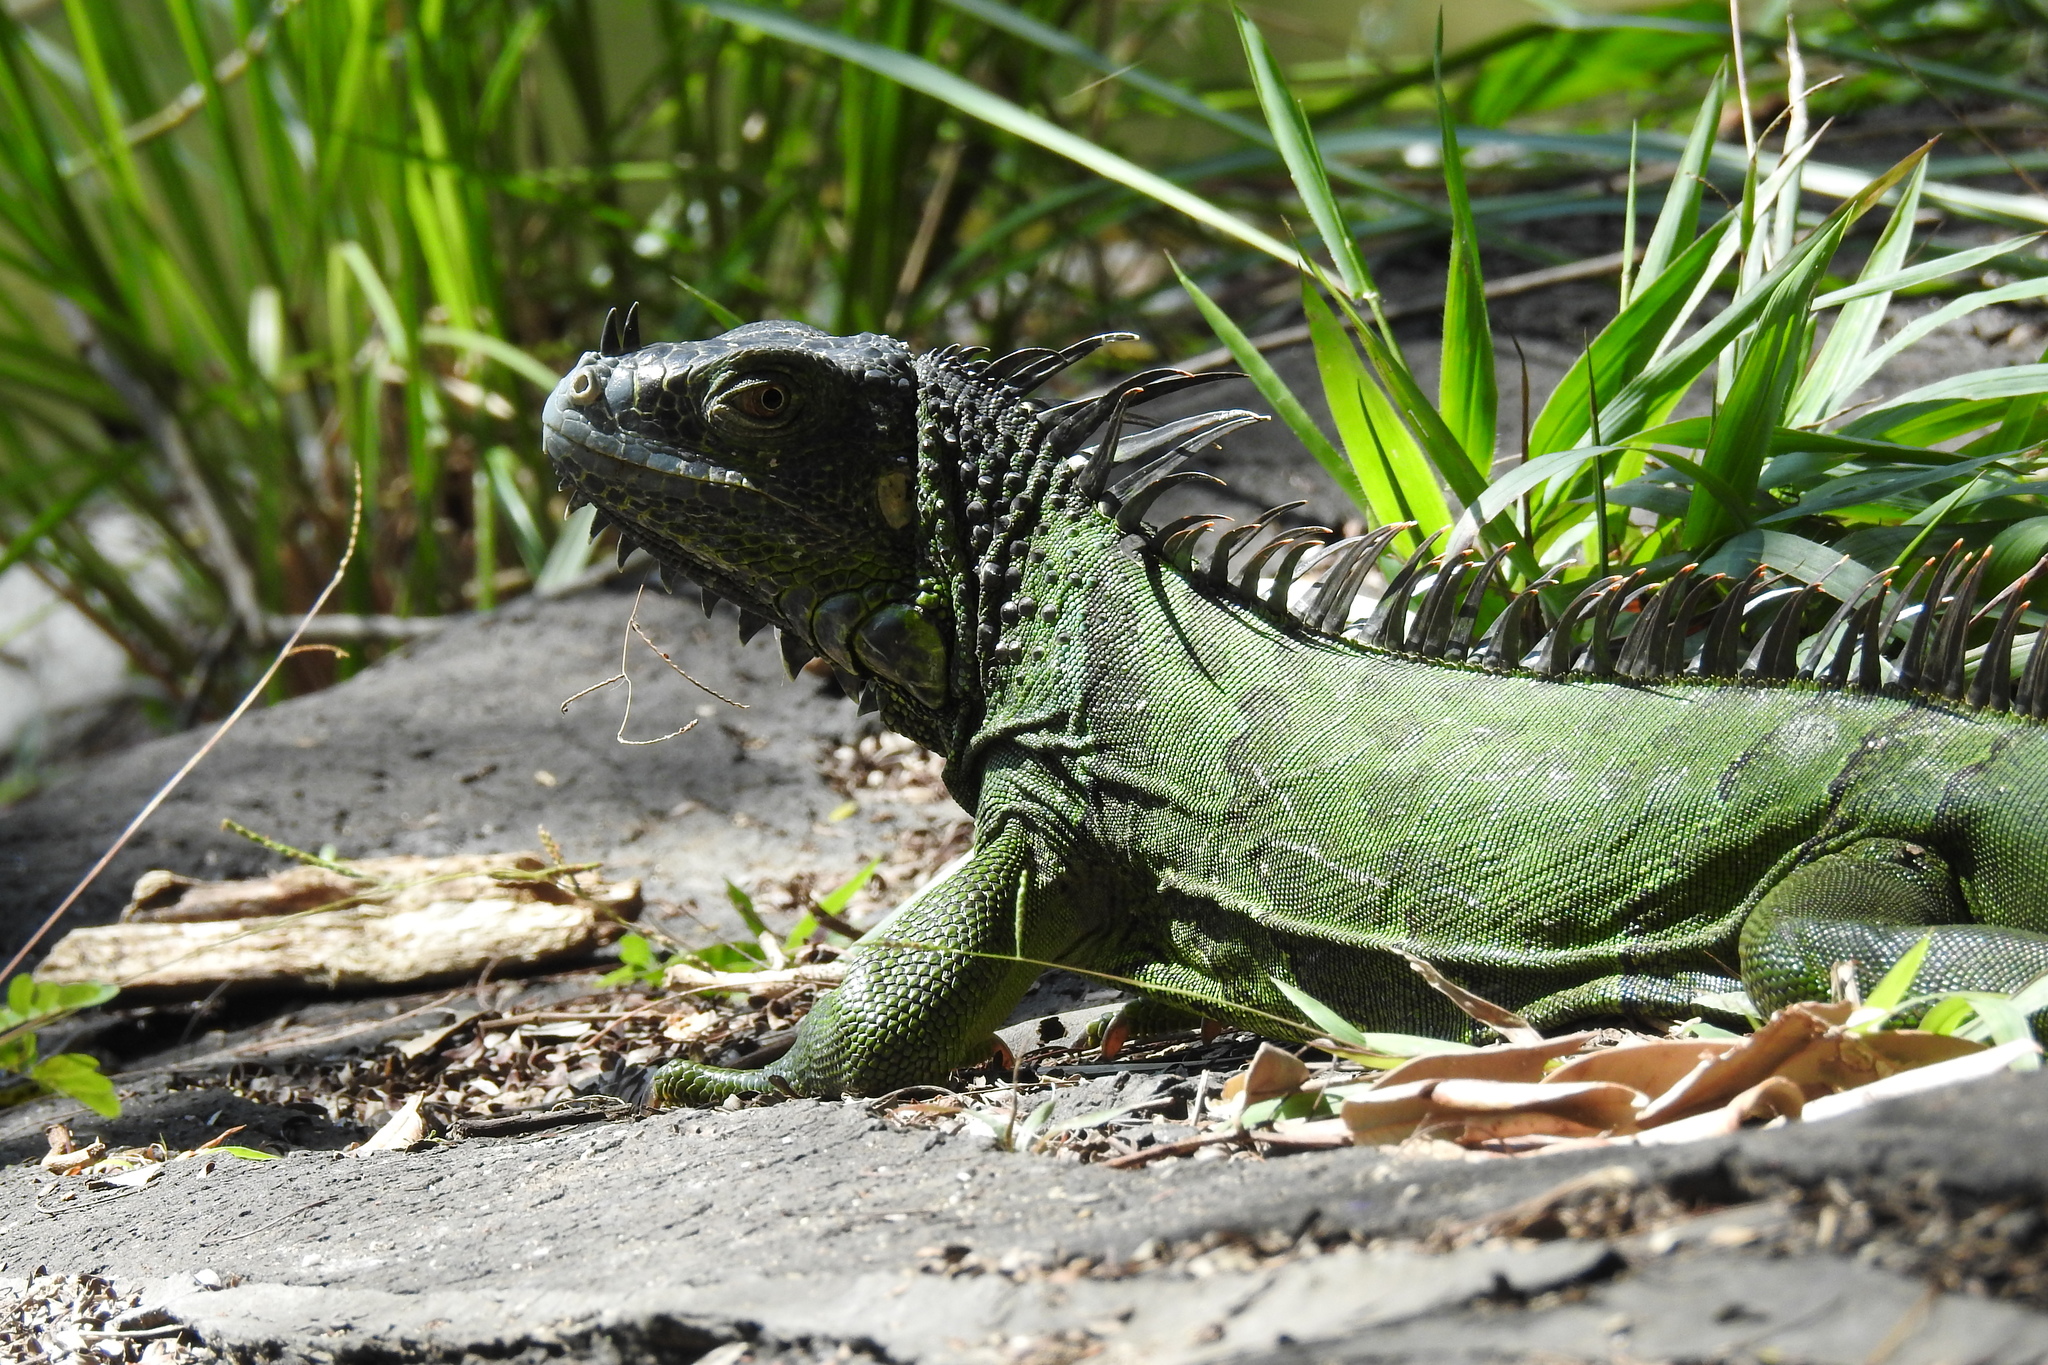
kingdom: Animalia
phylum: Chordata
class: Squamata
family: Iguanidae
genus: Iguana
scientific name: Iguana iguana
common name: Green iguana
